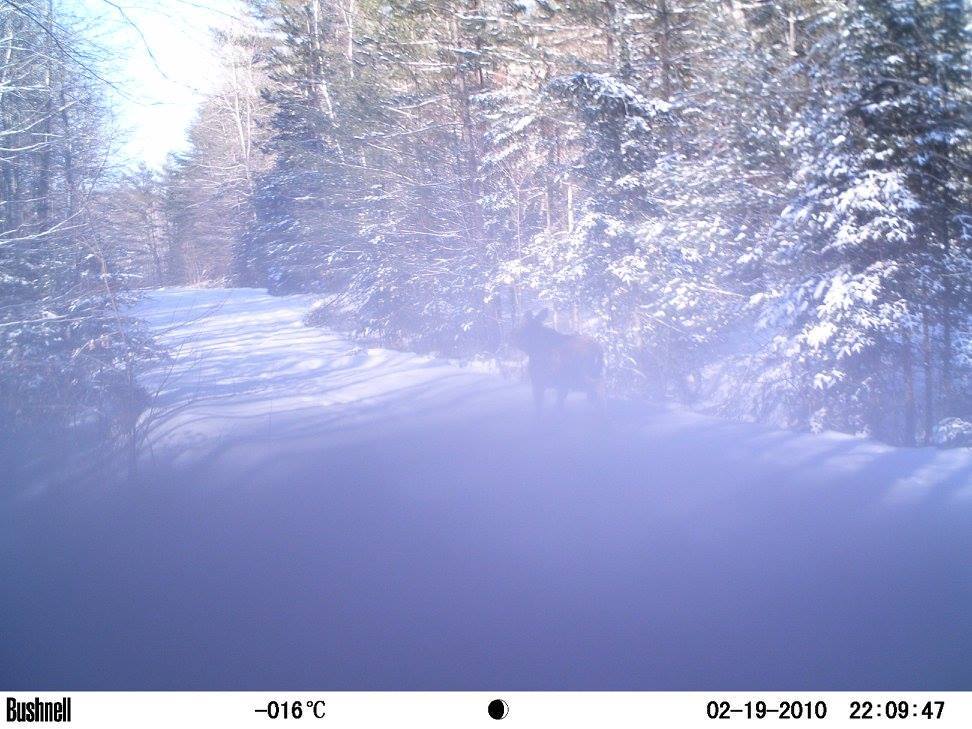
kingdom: Animalia
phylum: Chordata
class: Mammalia
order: Artiodactyla
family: Cervidae
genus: Alces
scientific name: Alces alces
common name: Moose
